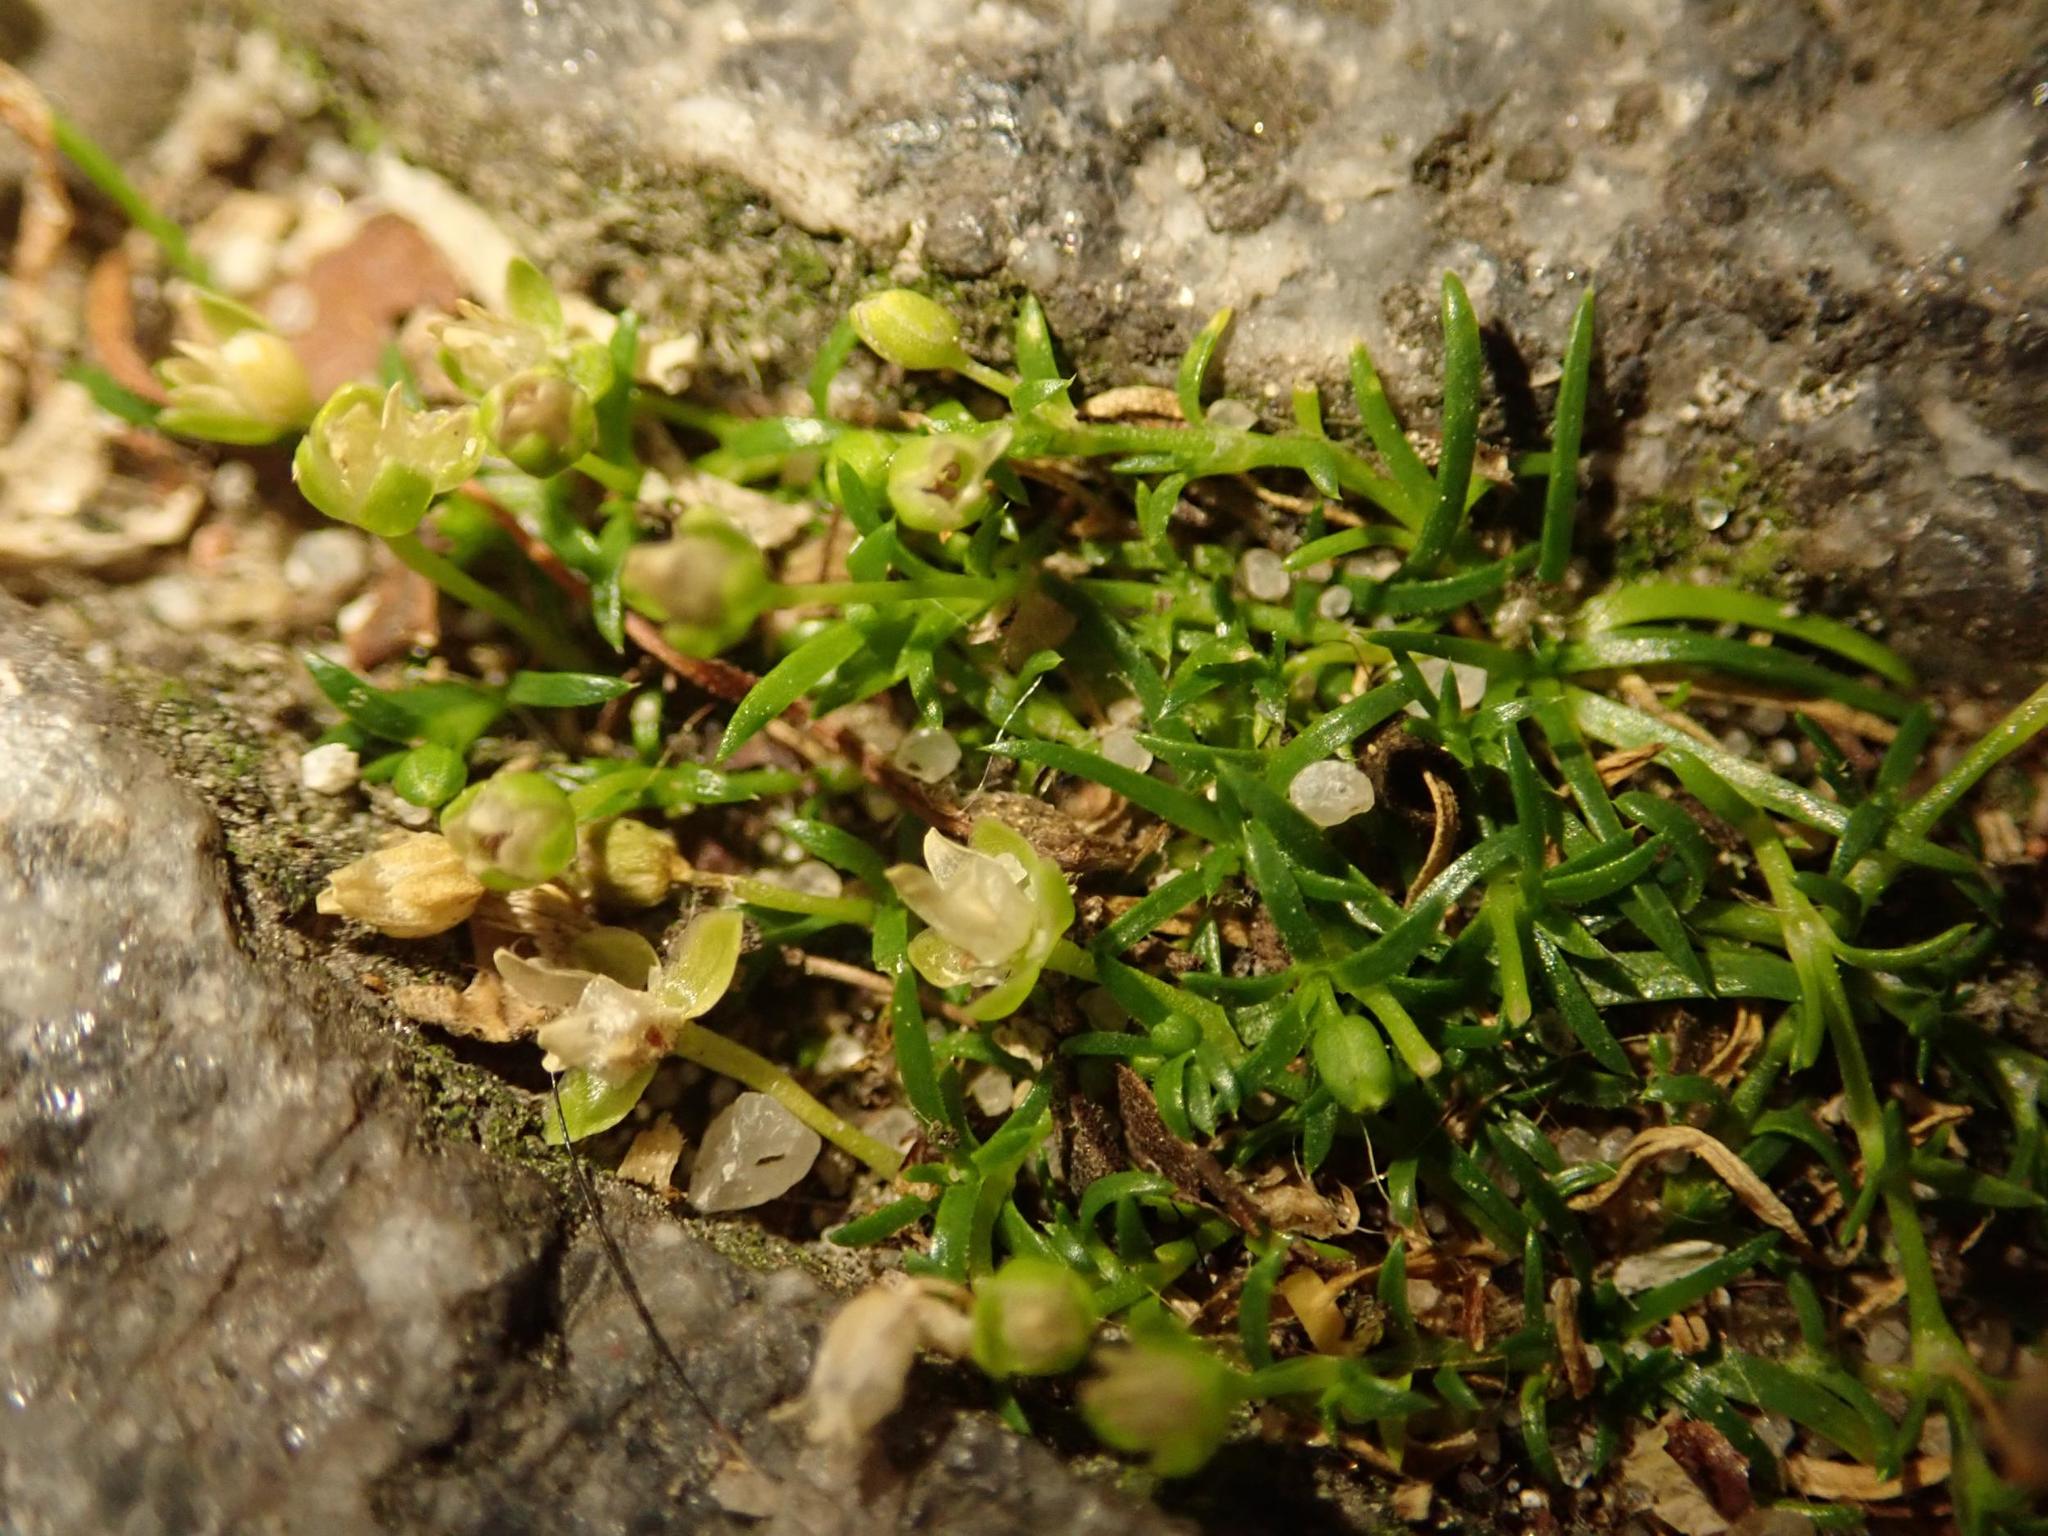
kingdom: Plantae
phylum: Tracheophyta
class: Magnoliopsida
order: Caryophyllales
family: Caryophyllaceae
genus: Sagina
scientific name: Sagina procumbens
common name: Procumbent pearlwort
